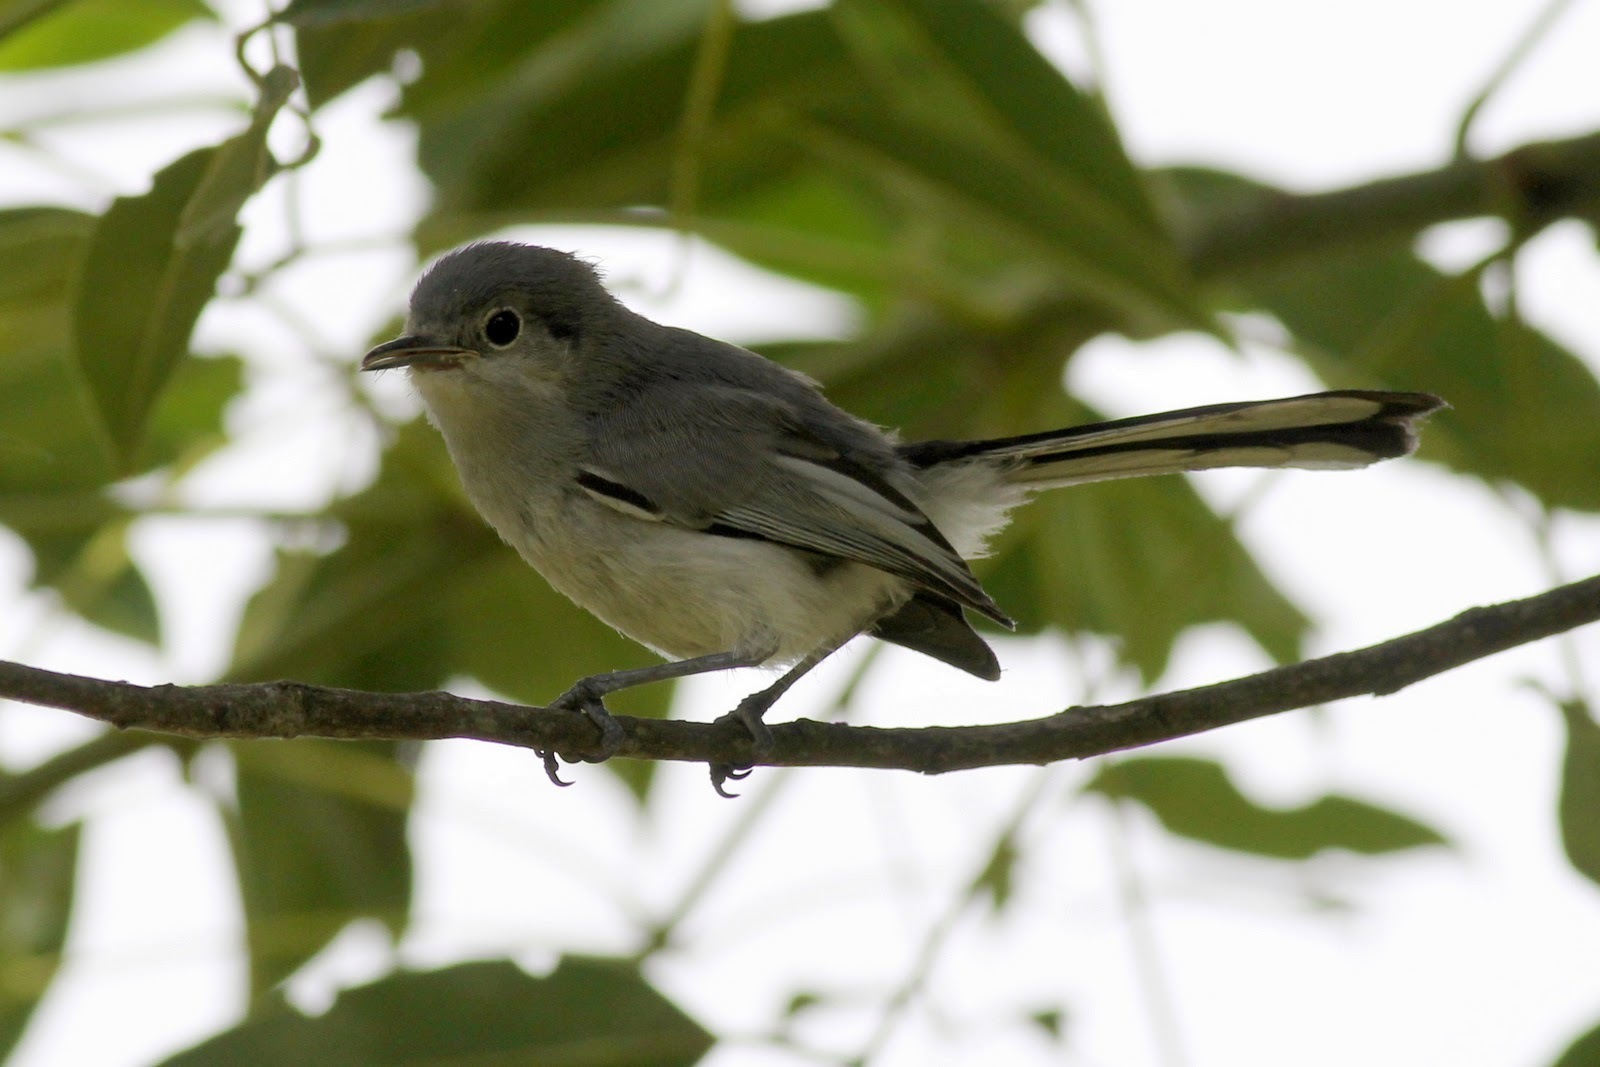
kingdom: Animalia
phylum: Chordata
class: Aves
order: Passeriformes
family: Polioptilidae
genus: Polioptila
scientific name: Polioptila dumicola
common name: Masked gnatcatcher
